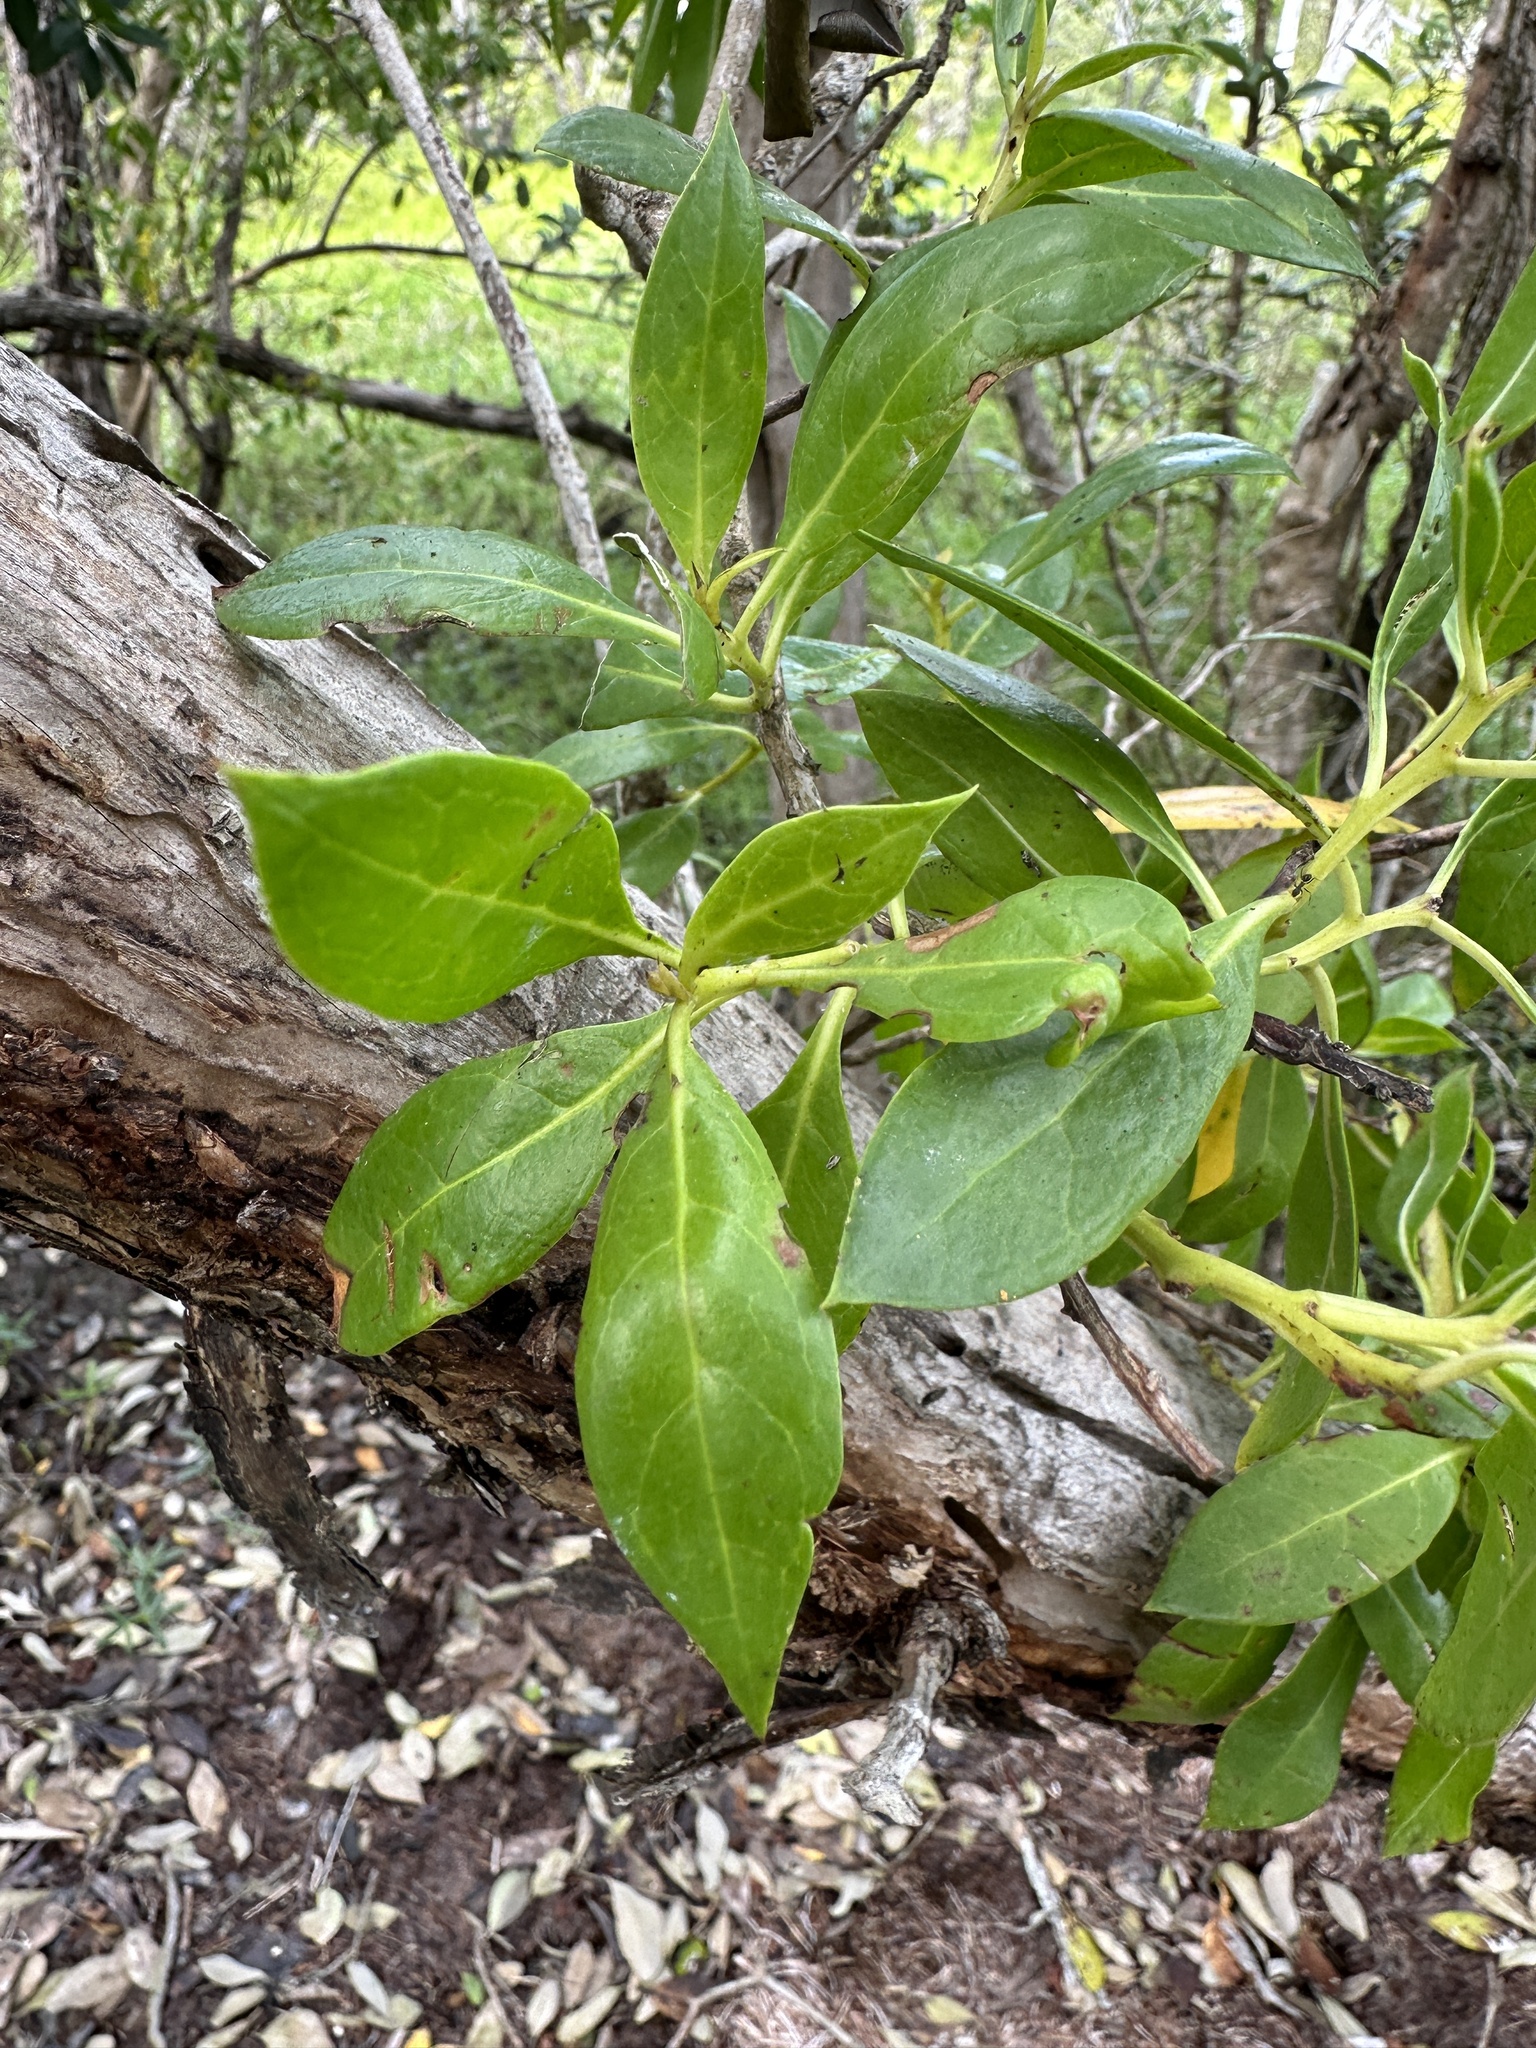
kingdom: Plantae
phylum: Tracheophyta
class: Magnoliopsida
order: Myrtales
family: Combretaceae
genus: Conocarpus
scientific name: Conocarpus erectus
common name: Button mangrove
